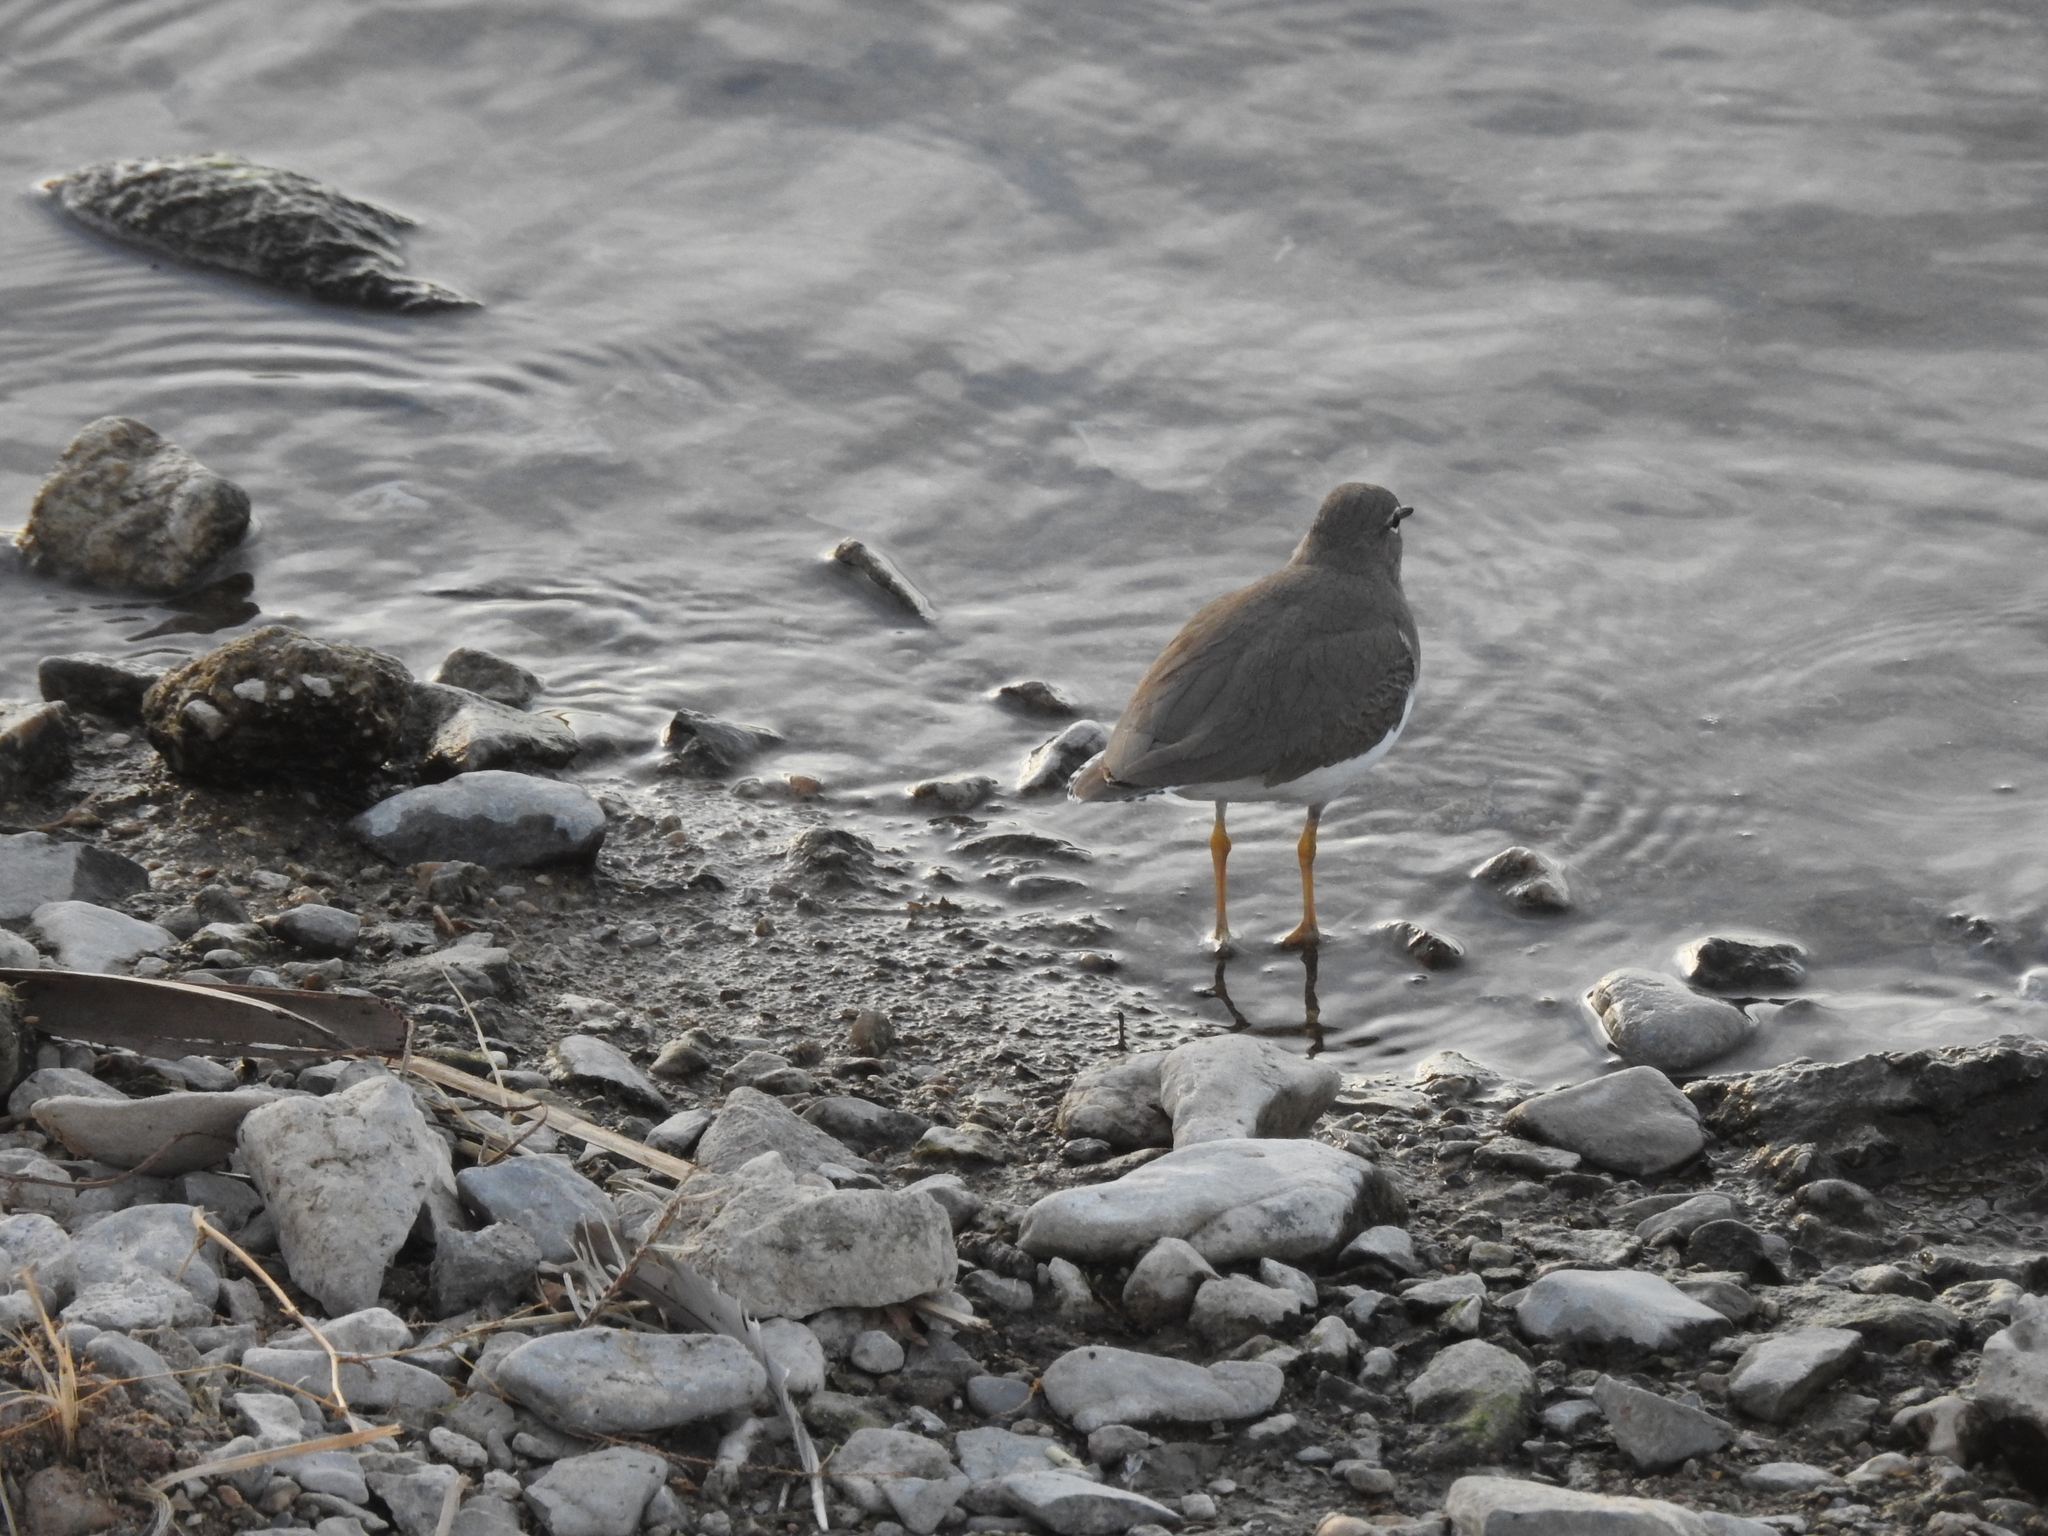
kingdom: Animalia
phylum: Chordata
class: Aves
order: Charadriiformes
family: Scolopacidae
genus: Actitis
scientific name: Actitis macularius
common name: Spotted sandpiper
